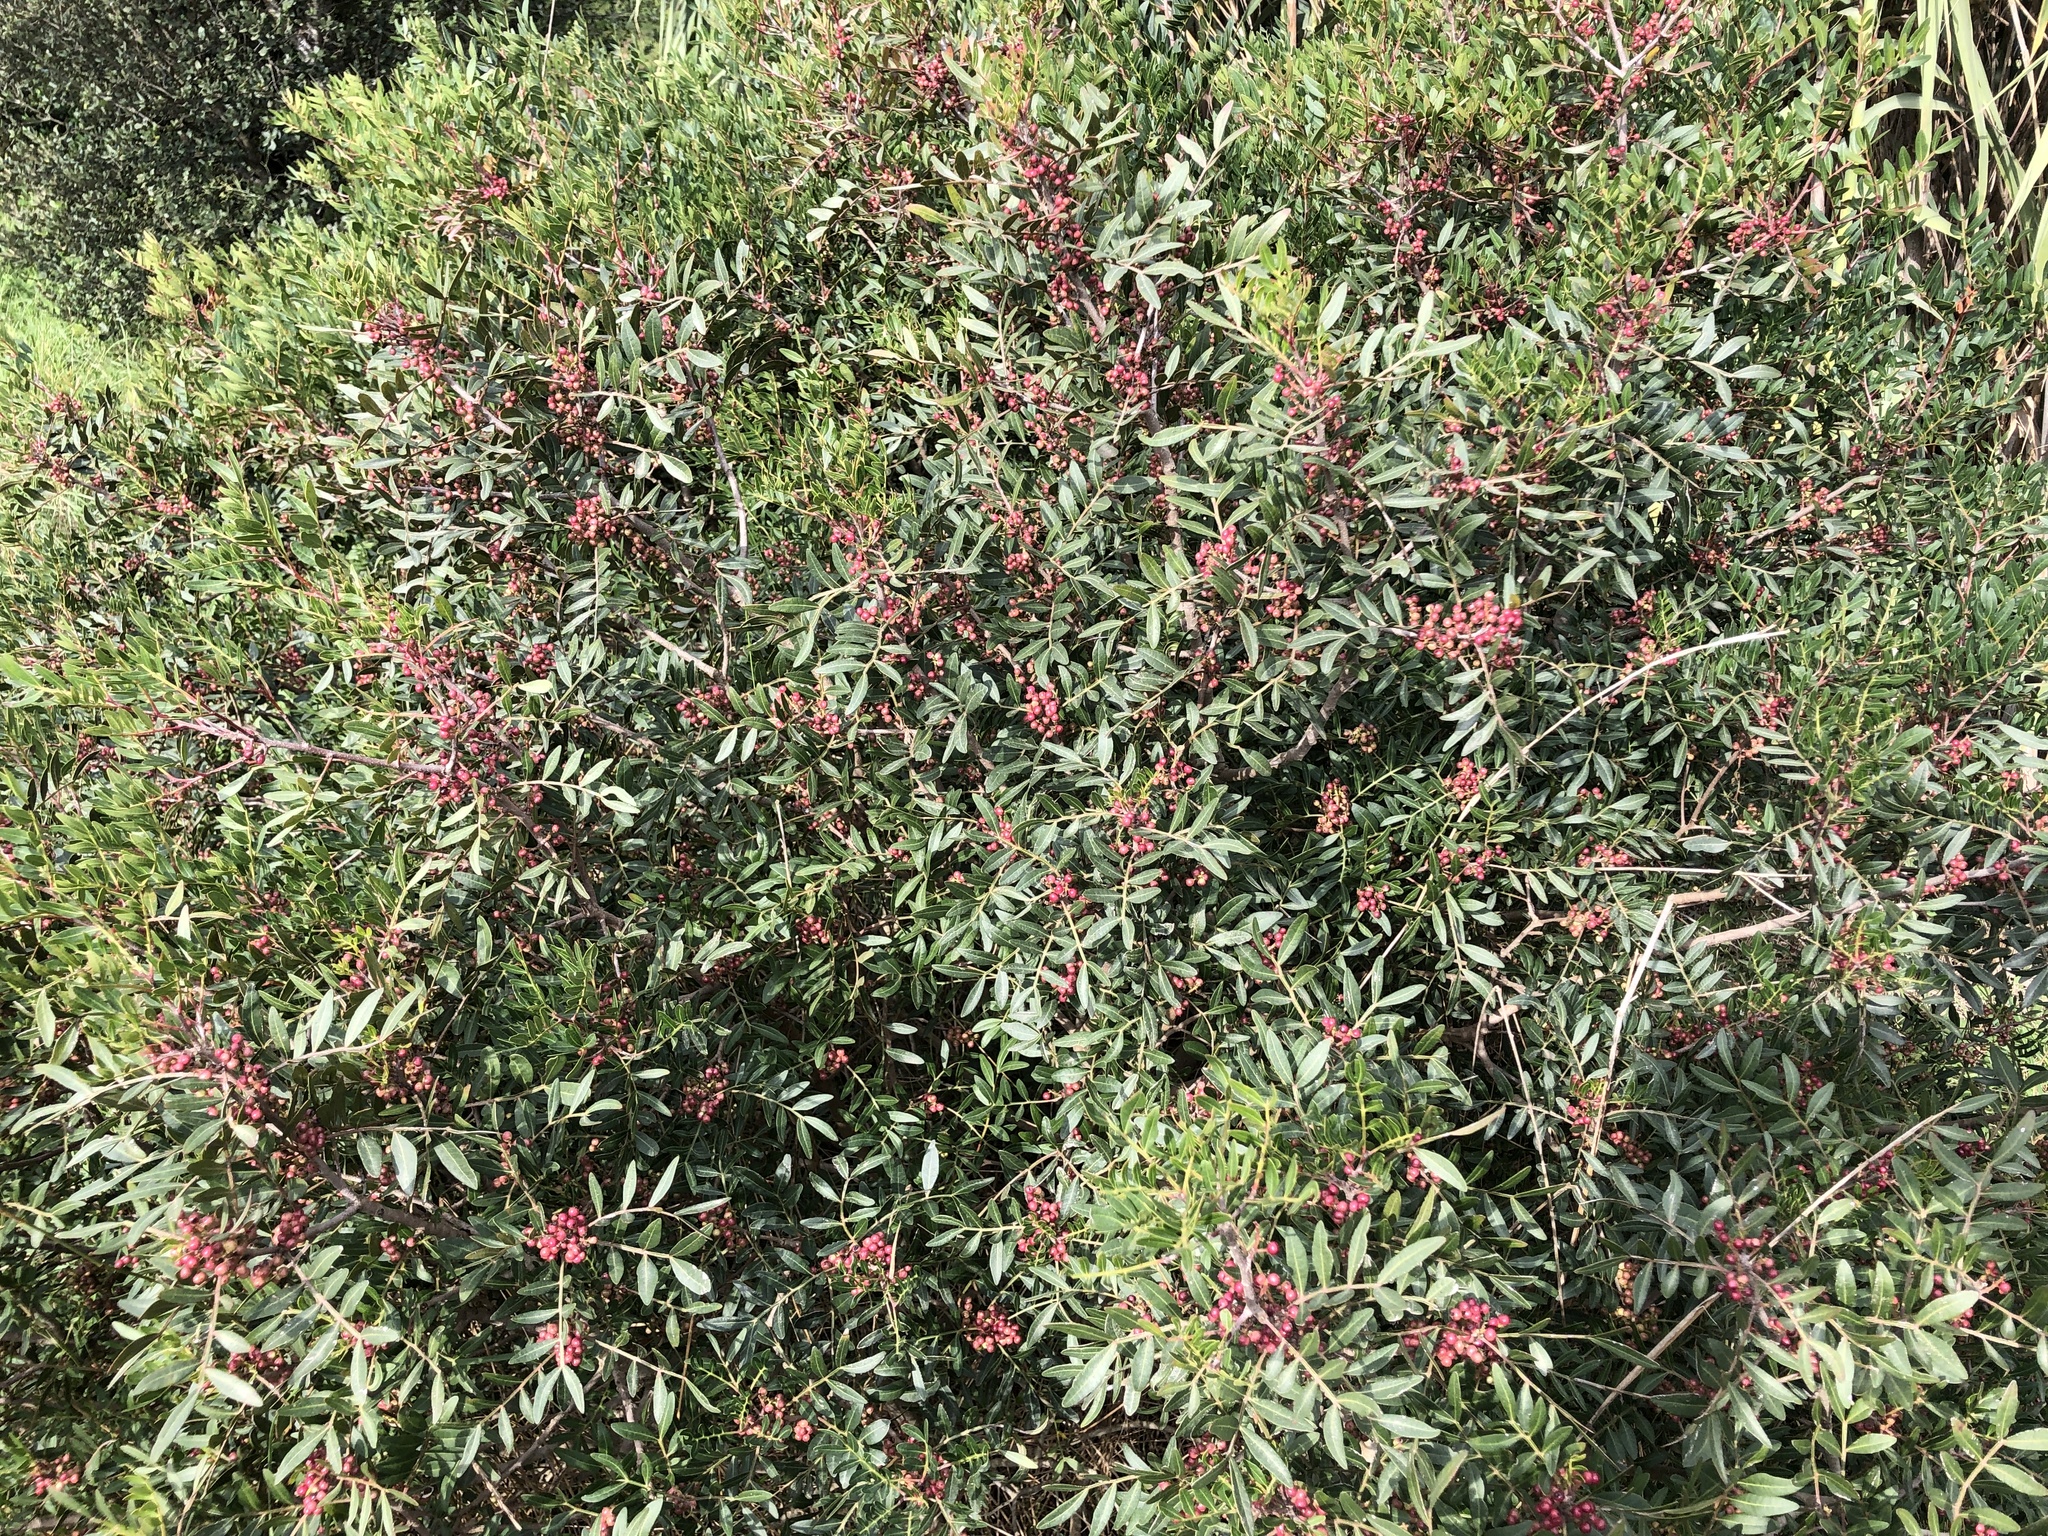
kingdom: Plantae
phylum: Tracheophyta
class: Magnoliopsida
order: Sapindales
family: Anacardiaceae
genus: Pistacia
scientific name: Pistacia lentiscus
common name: Lentisk
